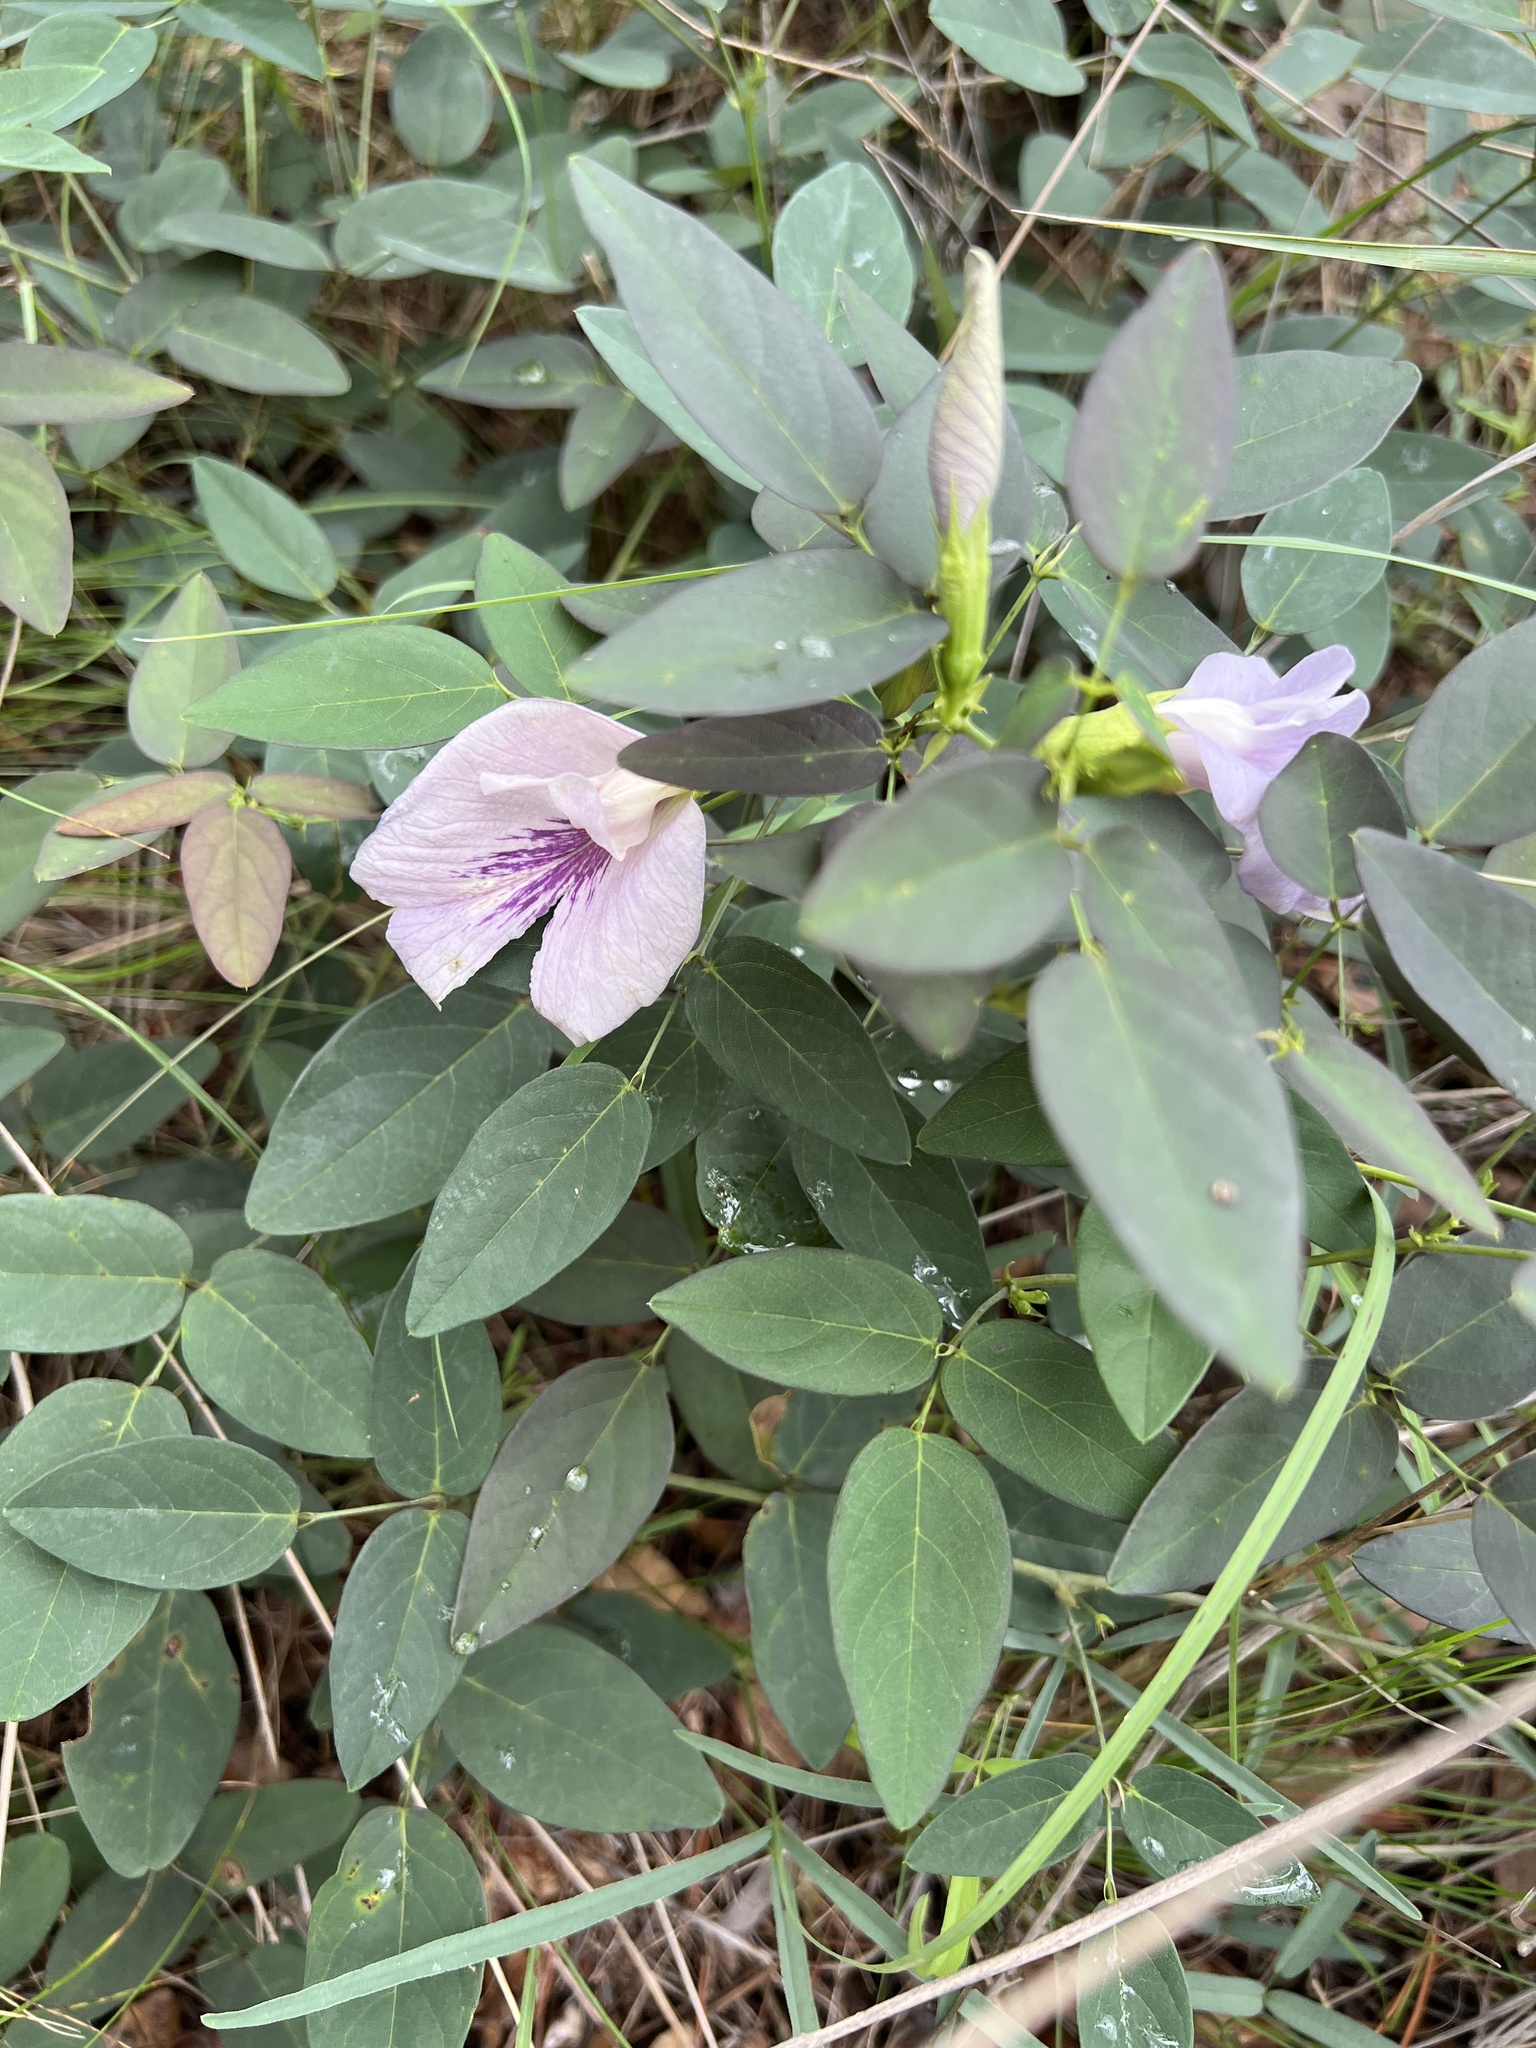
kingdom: Plantae
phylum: Tracheophyta
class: Magnoliopsida
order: Fabales
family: Fabaceae
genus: Clitoria
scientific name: Clitoria mariana
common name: Butterfly-pea
